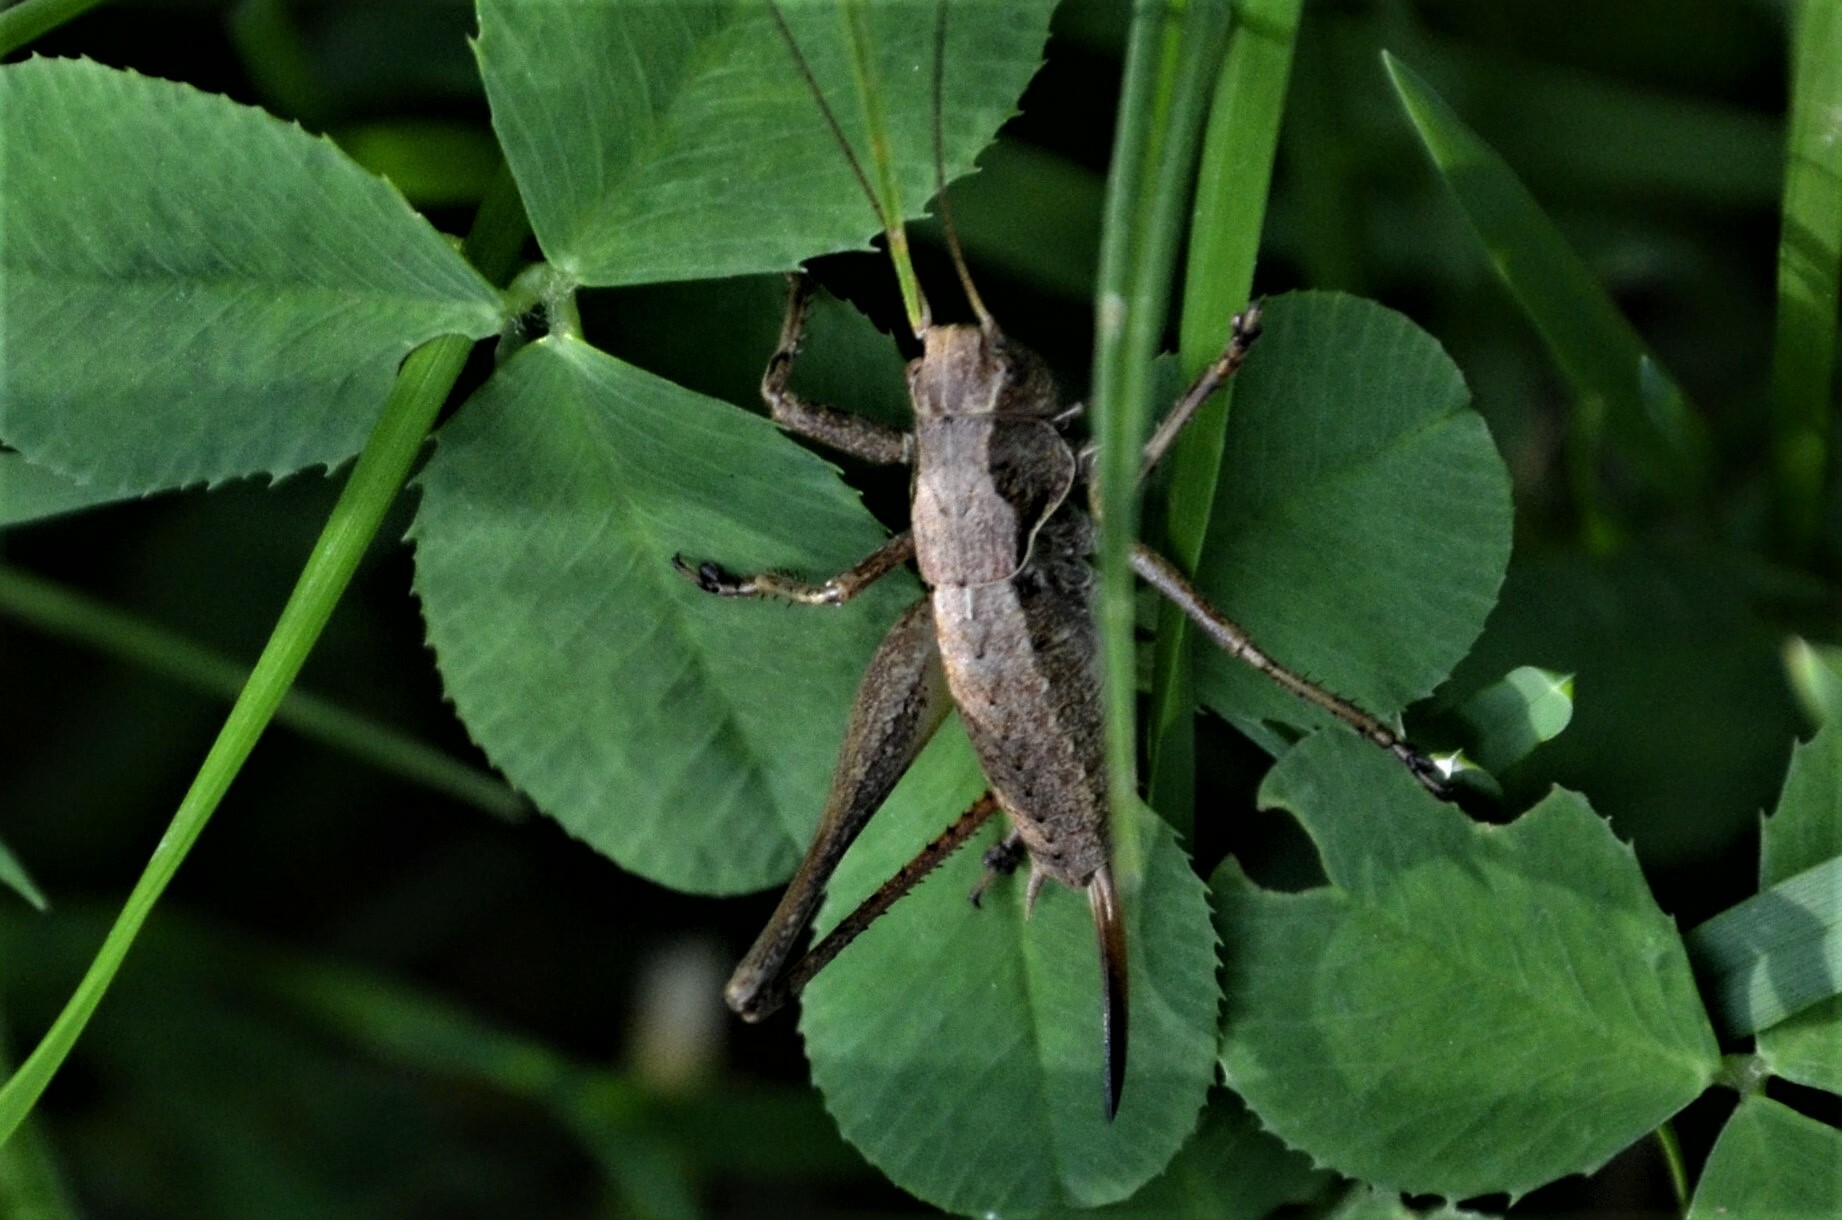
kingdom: Animalia
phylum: Arthropoda
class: Insecta
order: Orthoptera
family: Tettigoniidae
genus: Pholidoptera
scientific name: Pholidoptera griseoaptera
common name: Dark bush-cricket
